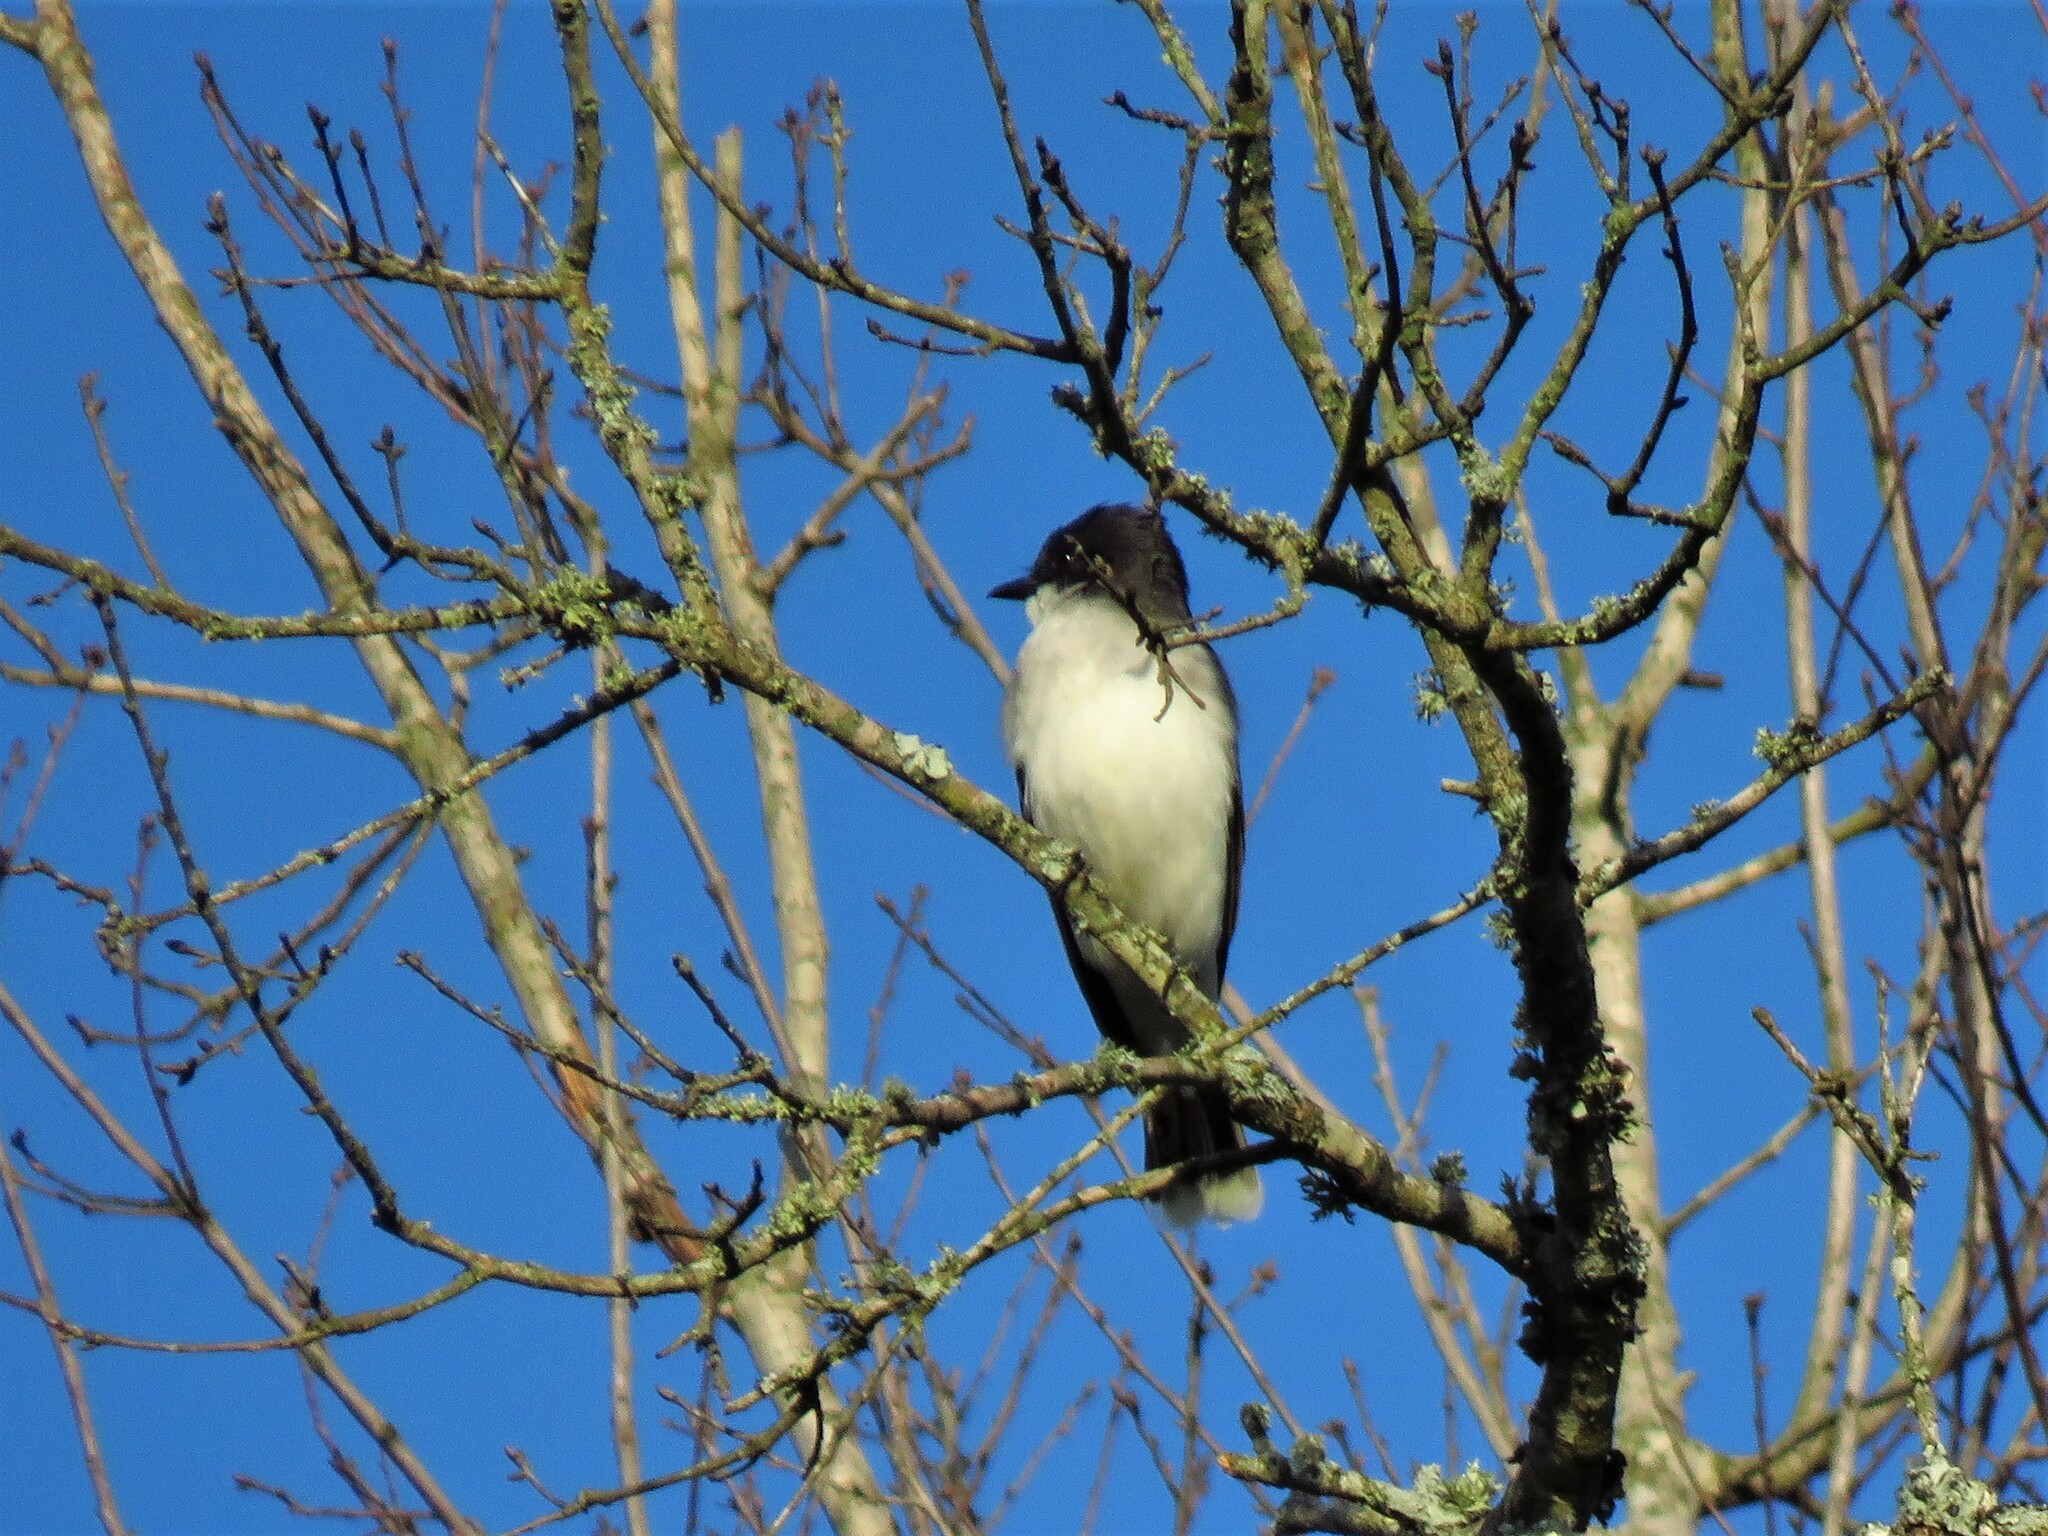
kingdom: Animalia
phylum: Chordata
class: Aves
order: Passeriformes
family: Tyrannidae
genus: Tyrannus
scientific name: Tyrannus tyrannus
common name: Eastern kingbird
